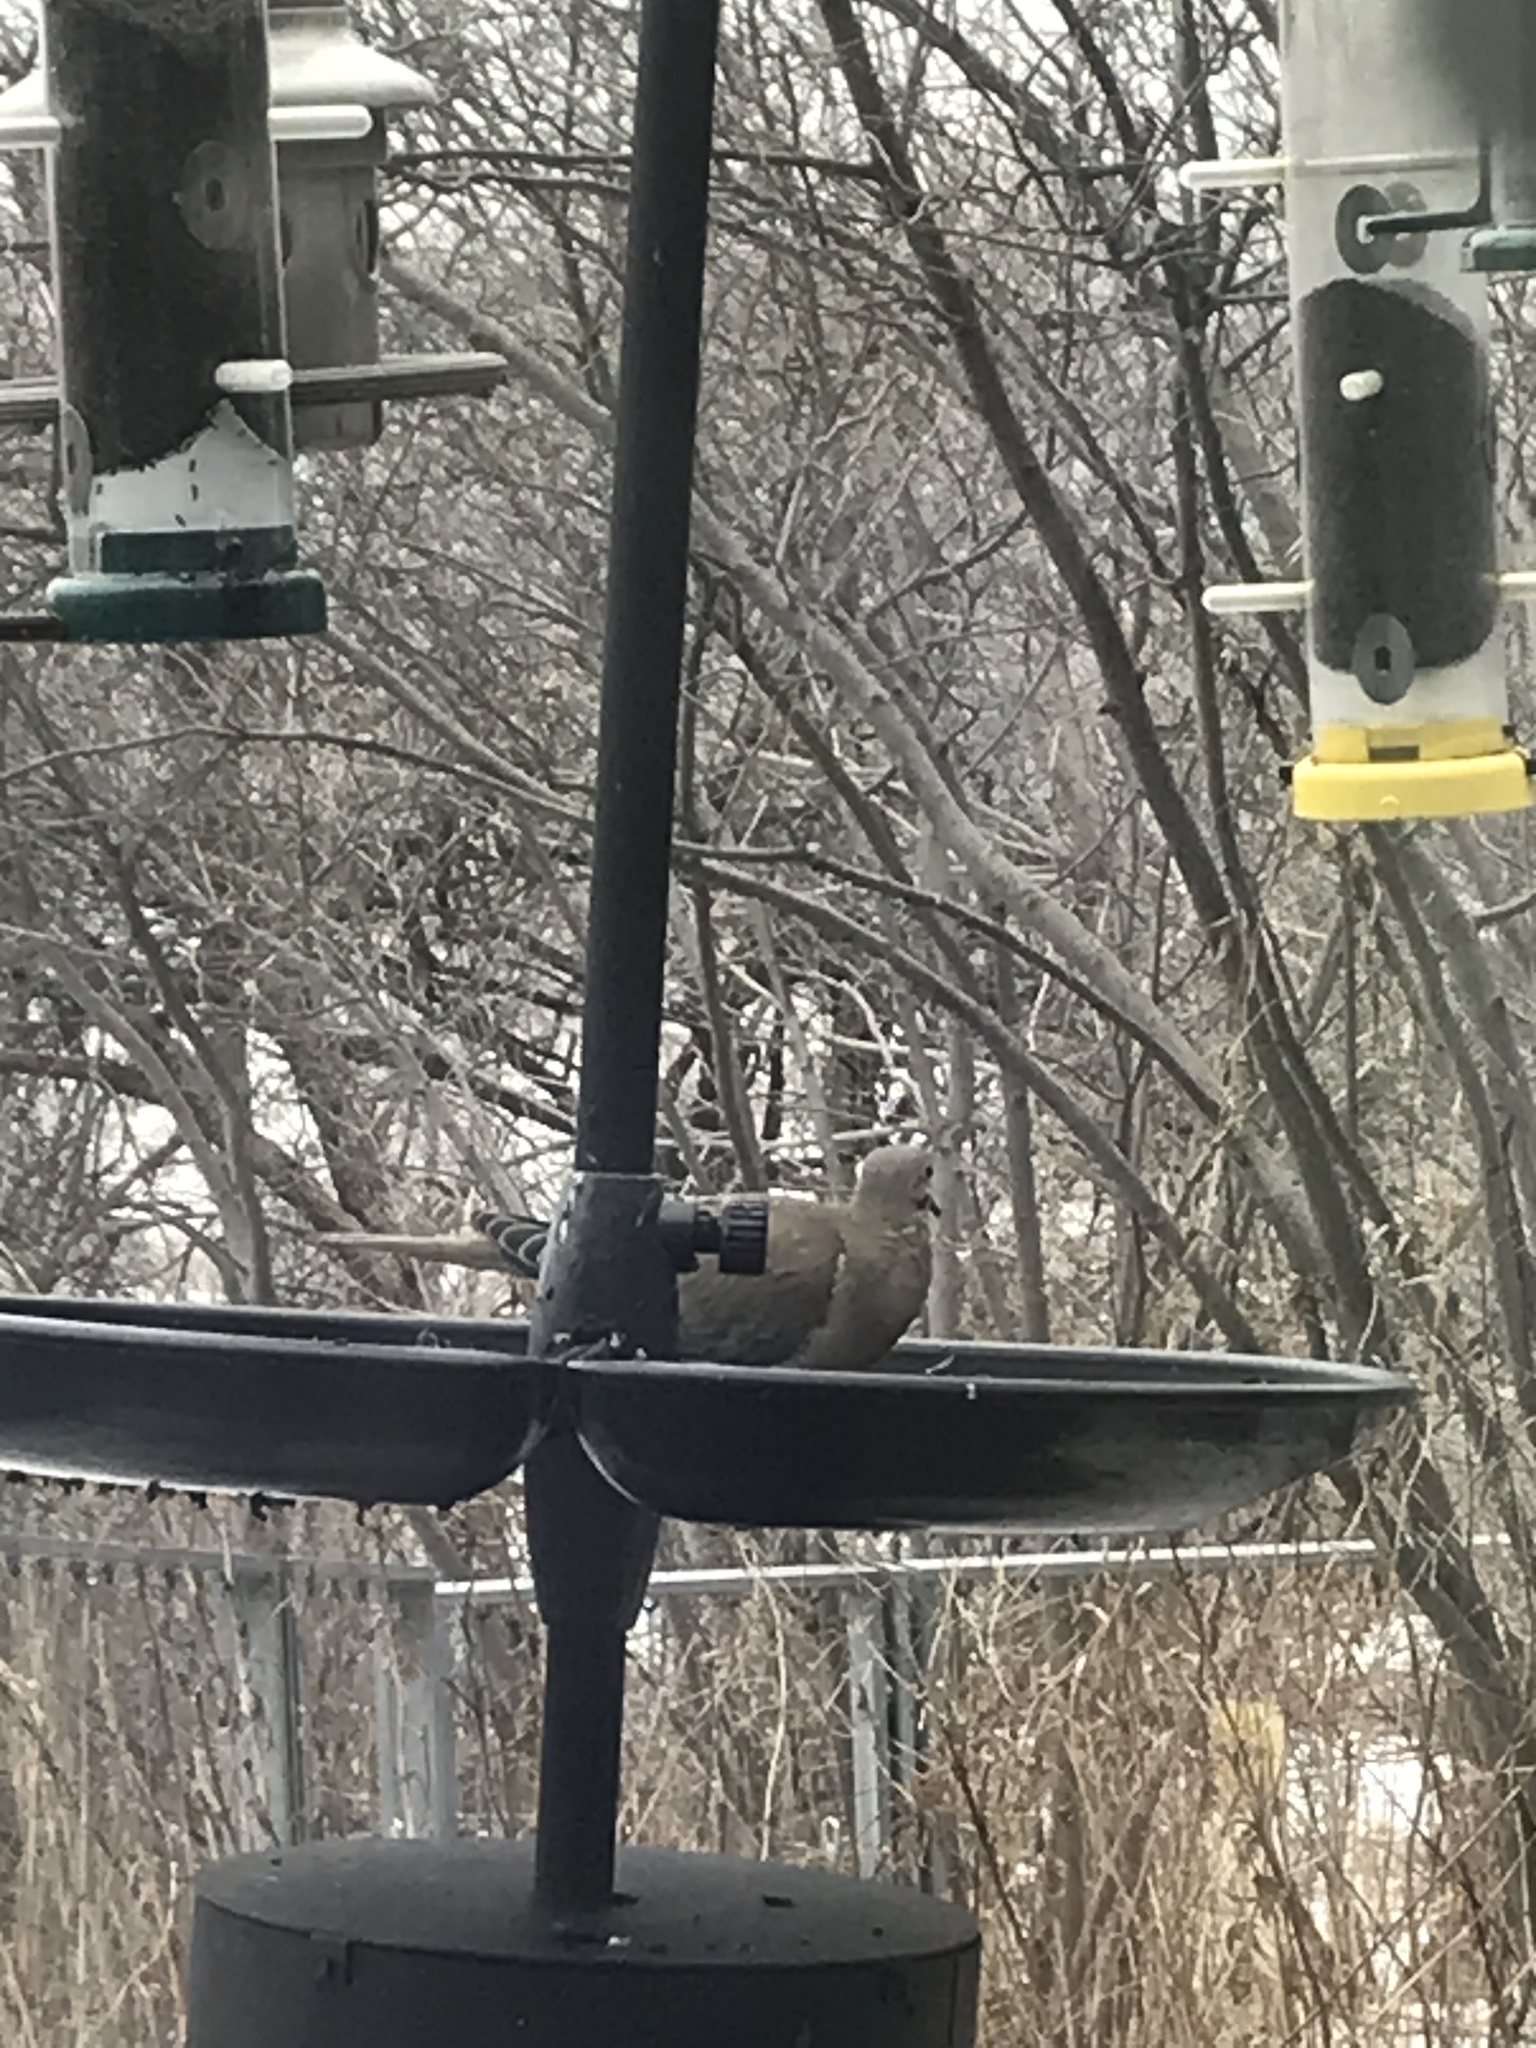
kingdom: Animalia
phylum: Chordata
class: Aves
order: Columbiformes
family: Columbidae
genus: Zenaida
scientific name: Zenaida macroura
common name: Mourning dove
